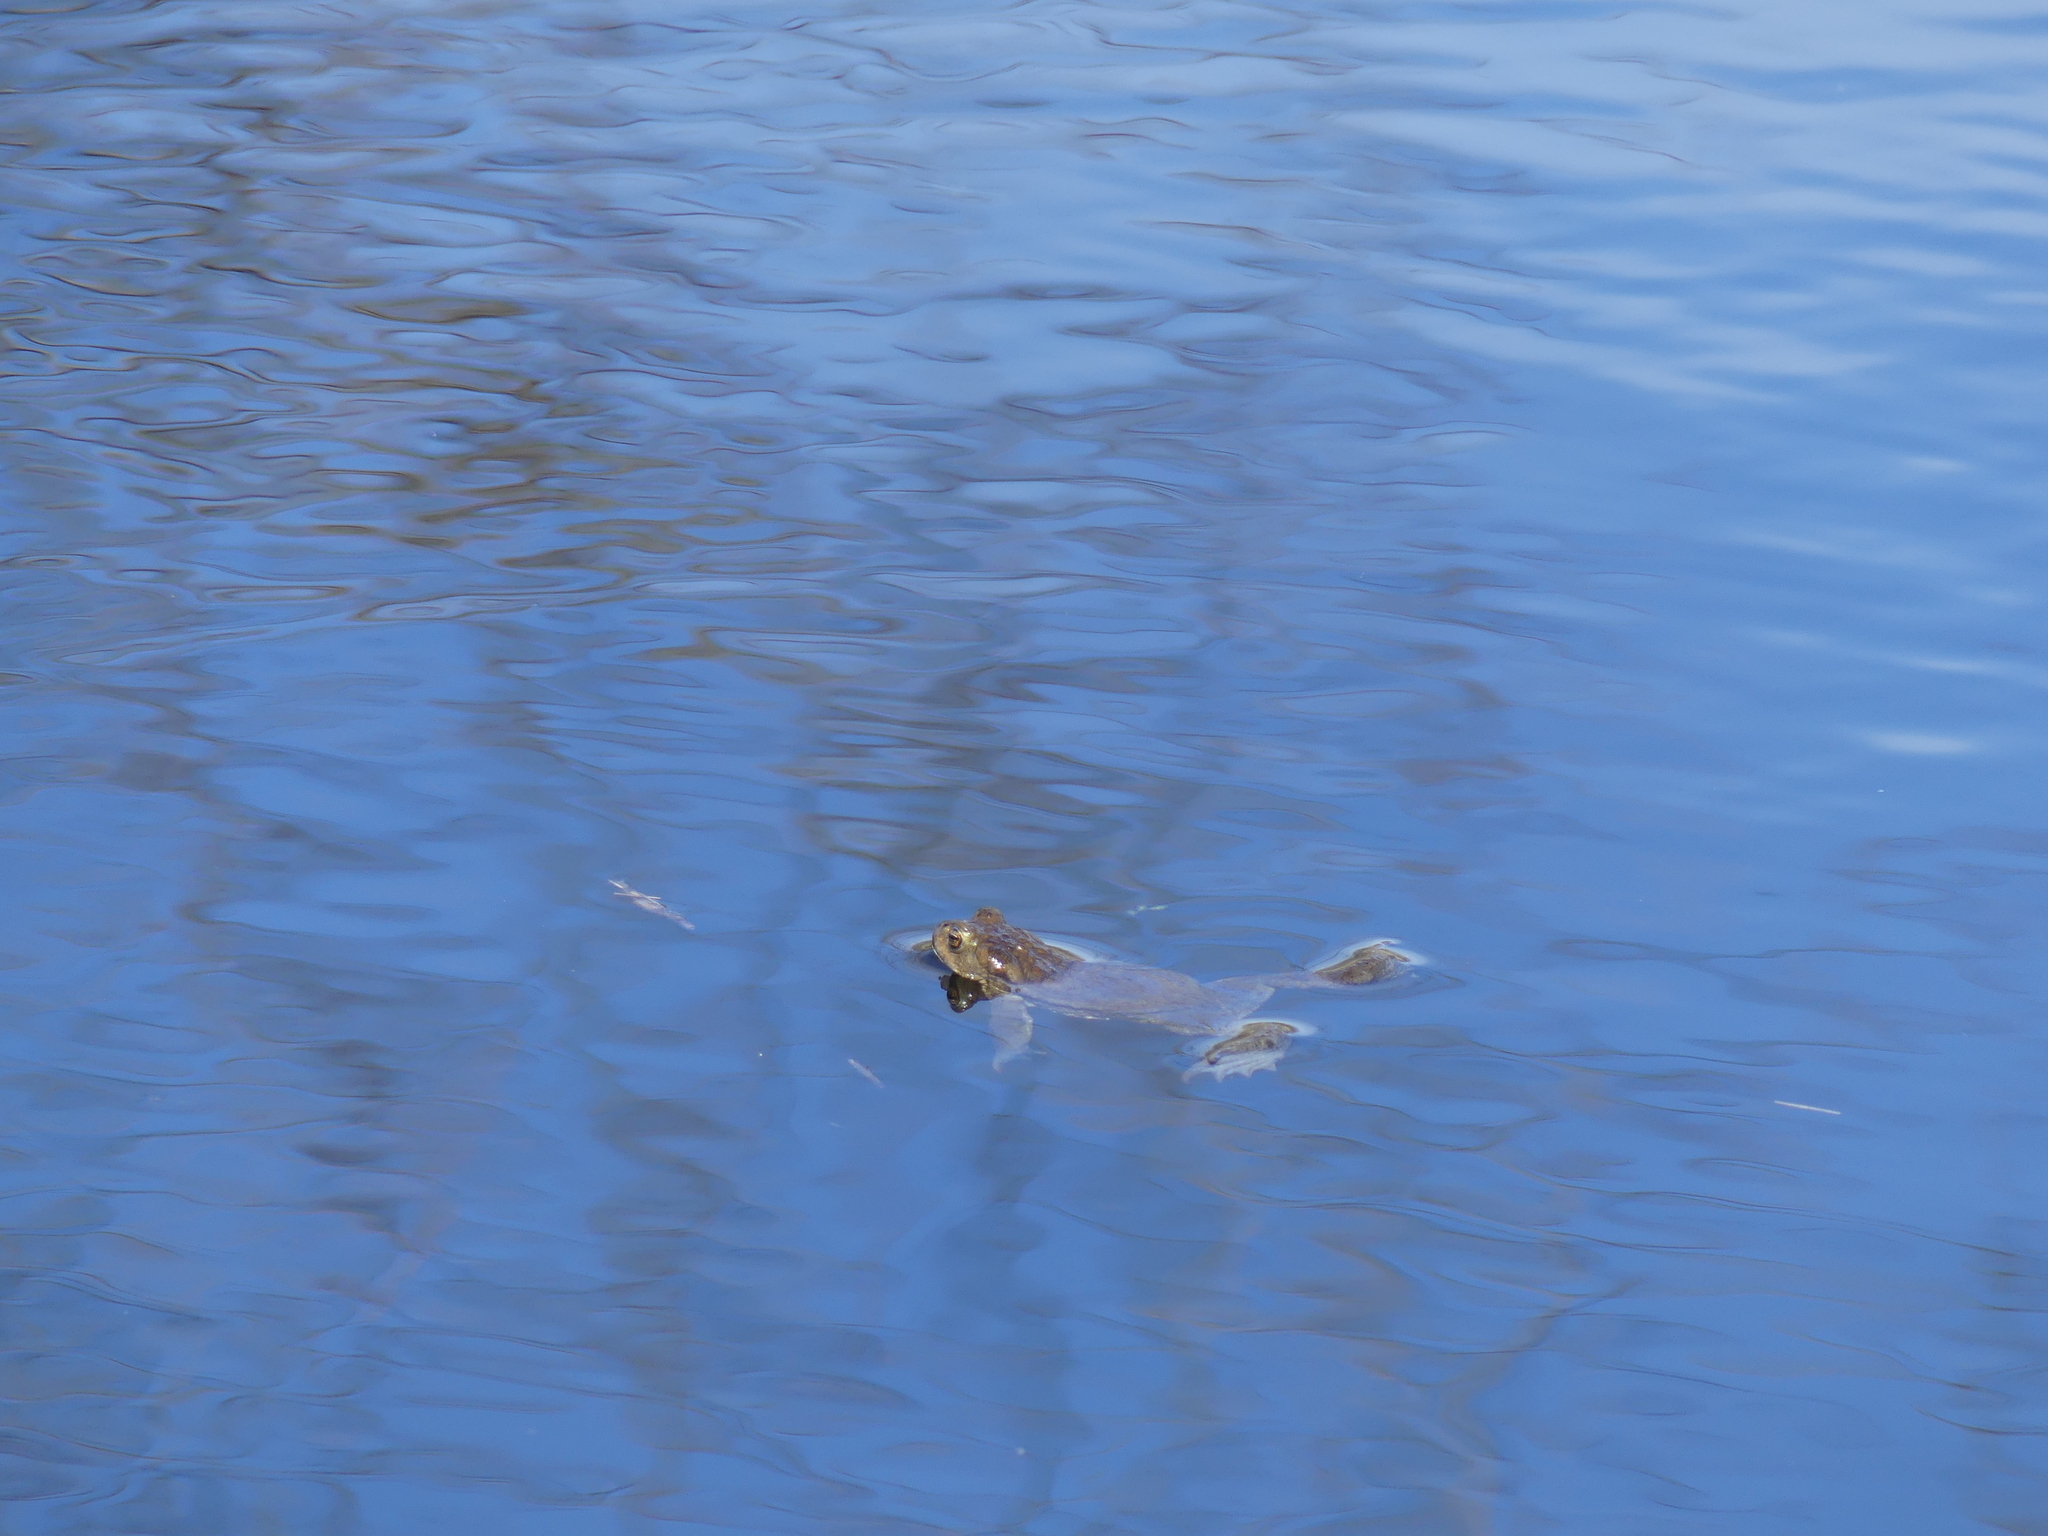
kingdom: Animalia
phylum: Chordata
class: Amphibia
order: Anura
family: Bufonidae
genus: Bufo
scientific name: Bufo bufo
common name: Common toad
